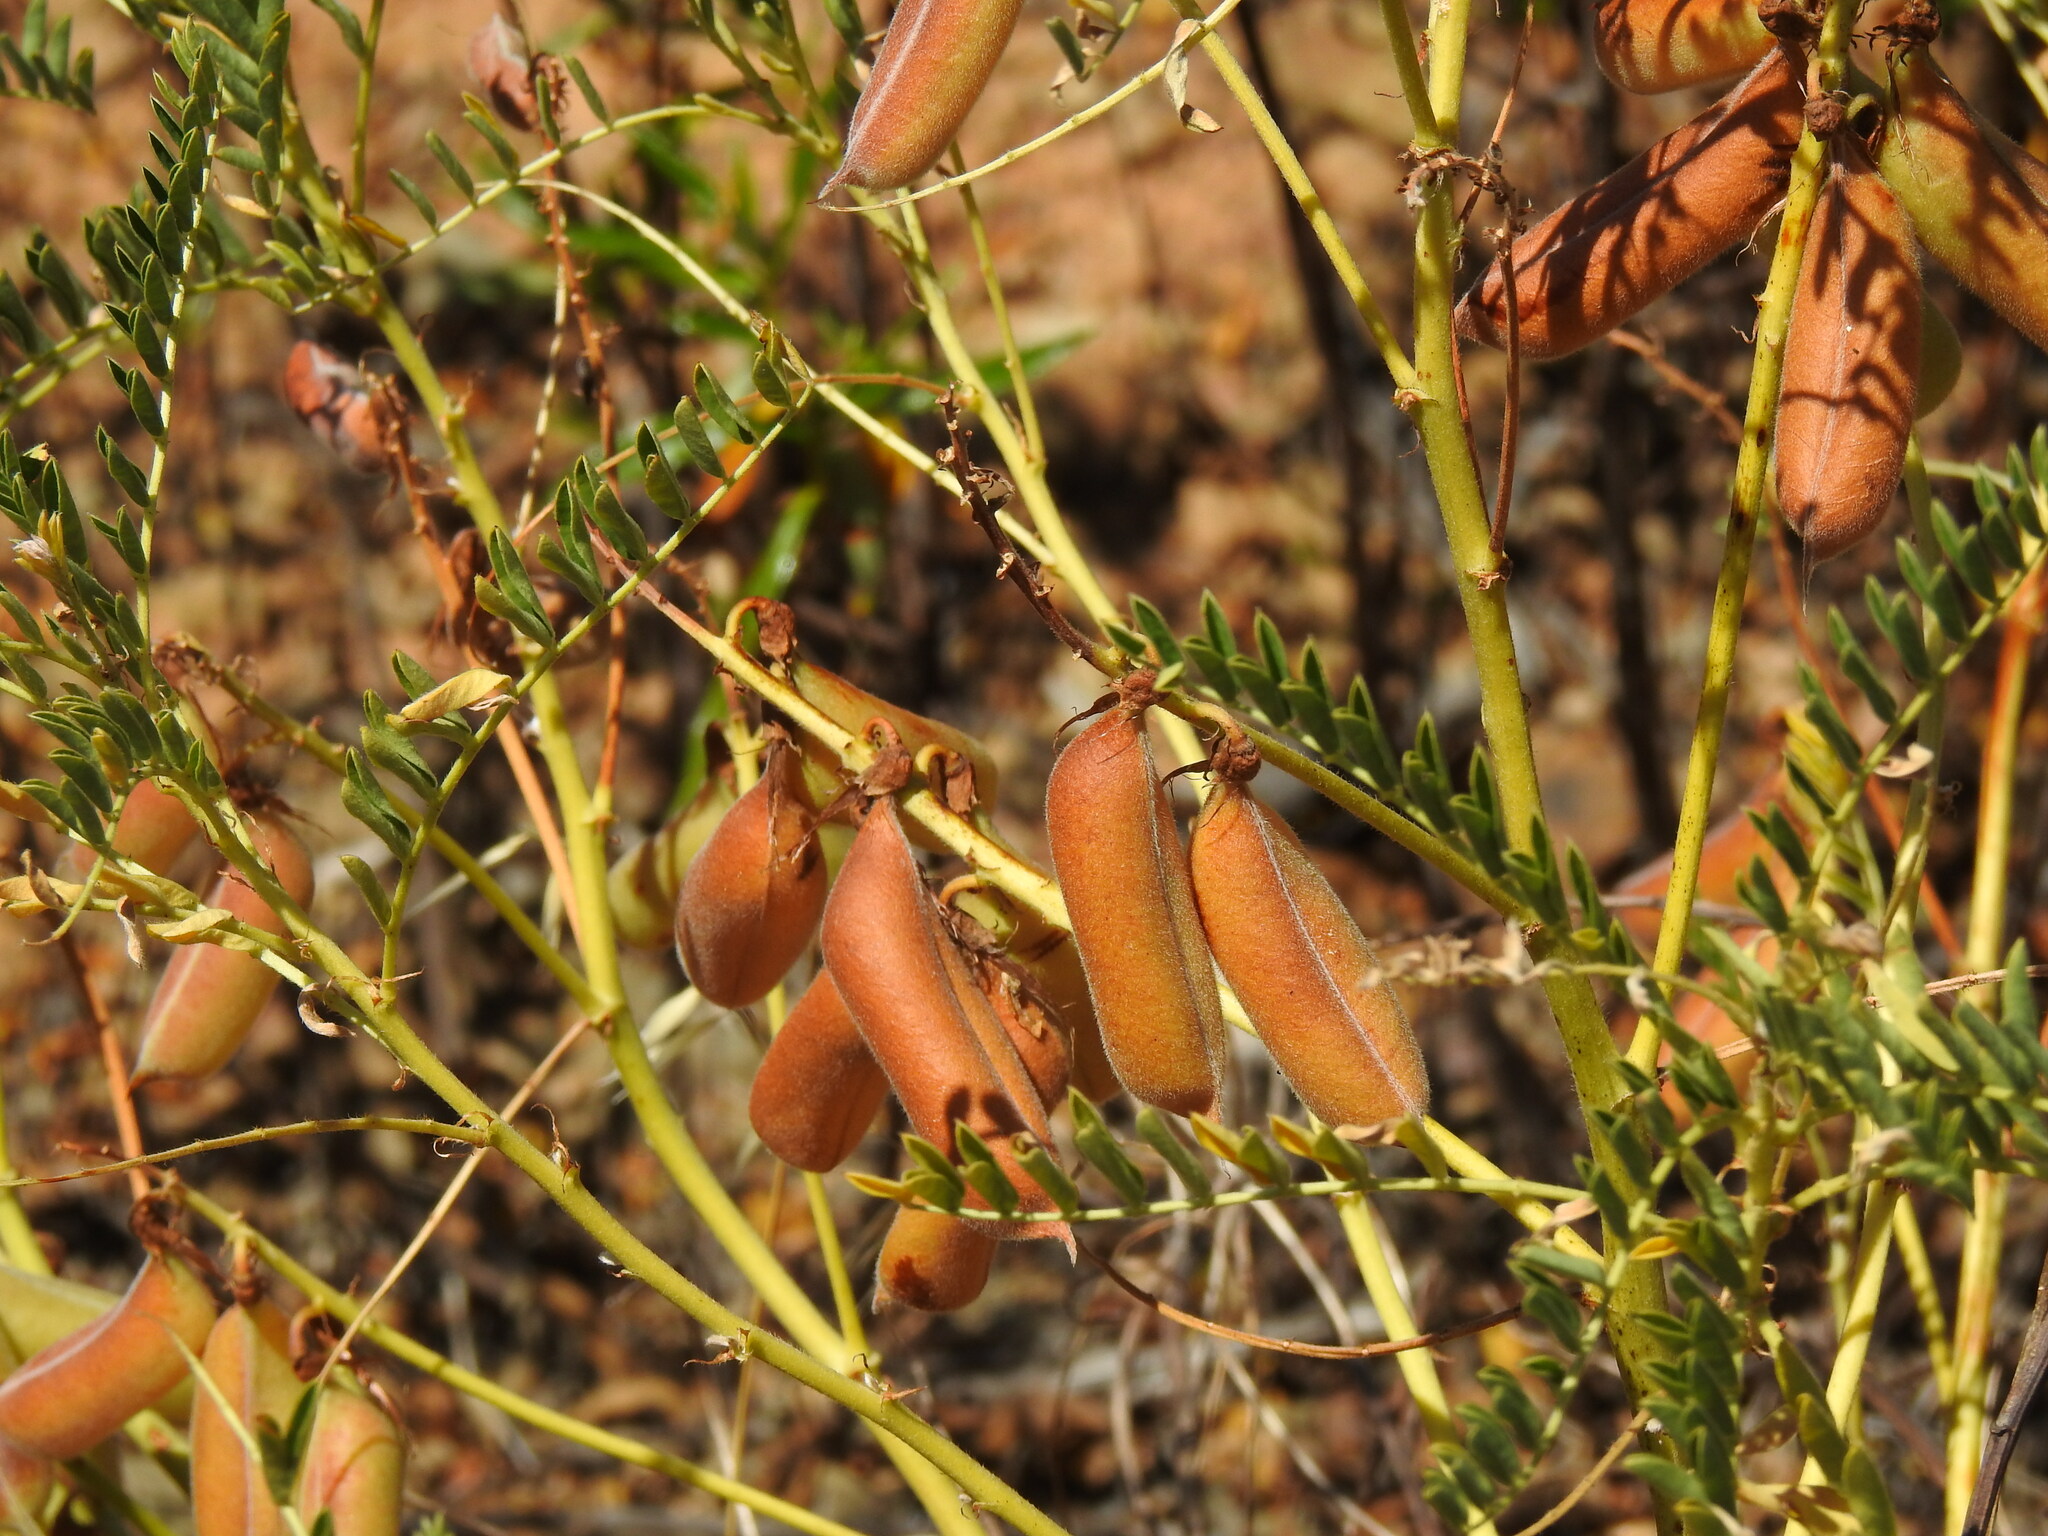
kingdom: Plantae
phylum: Tracheophyta
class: Magnoliopsida
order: Fabales
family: Fabaceae
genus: Erophaca
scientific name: Erophaca baetica
